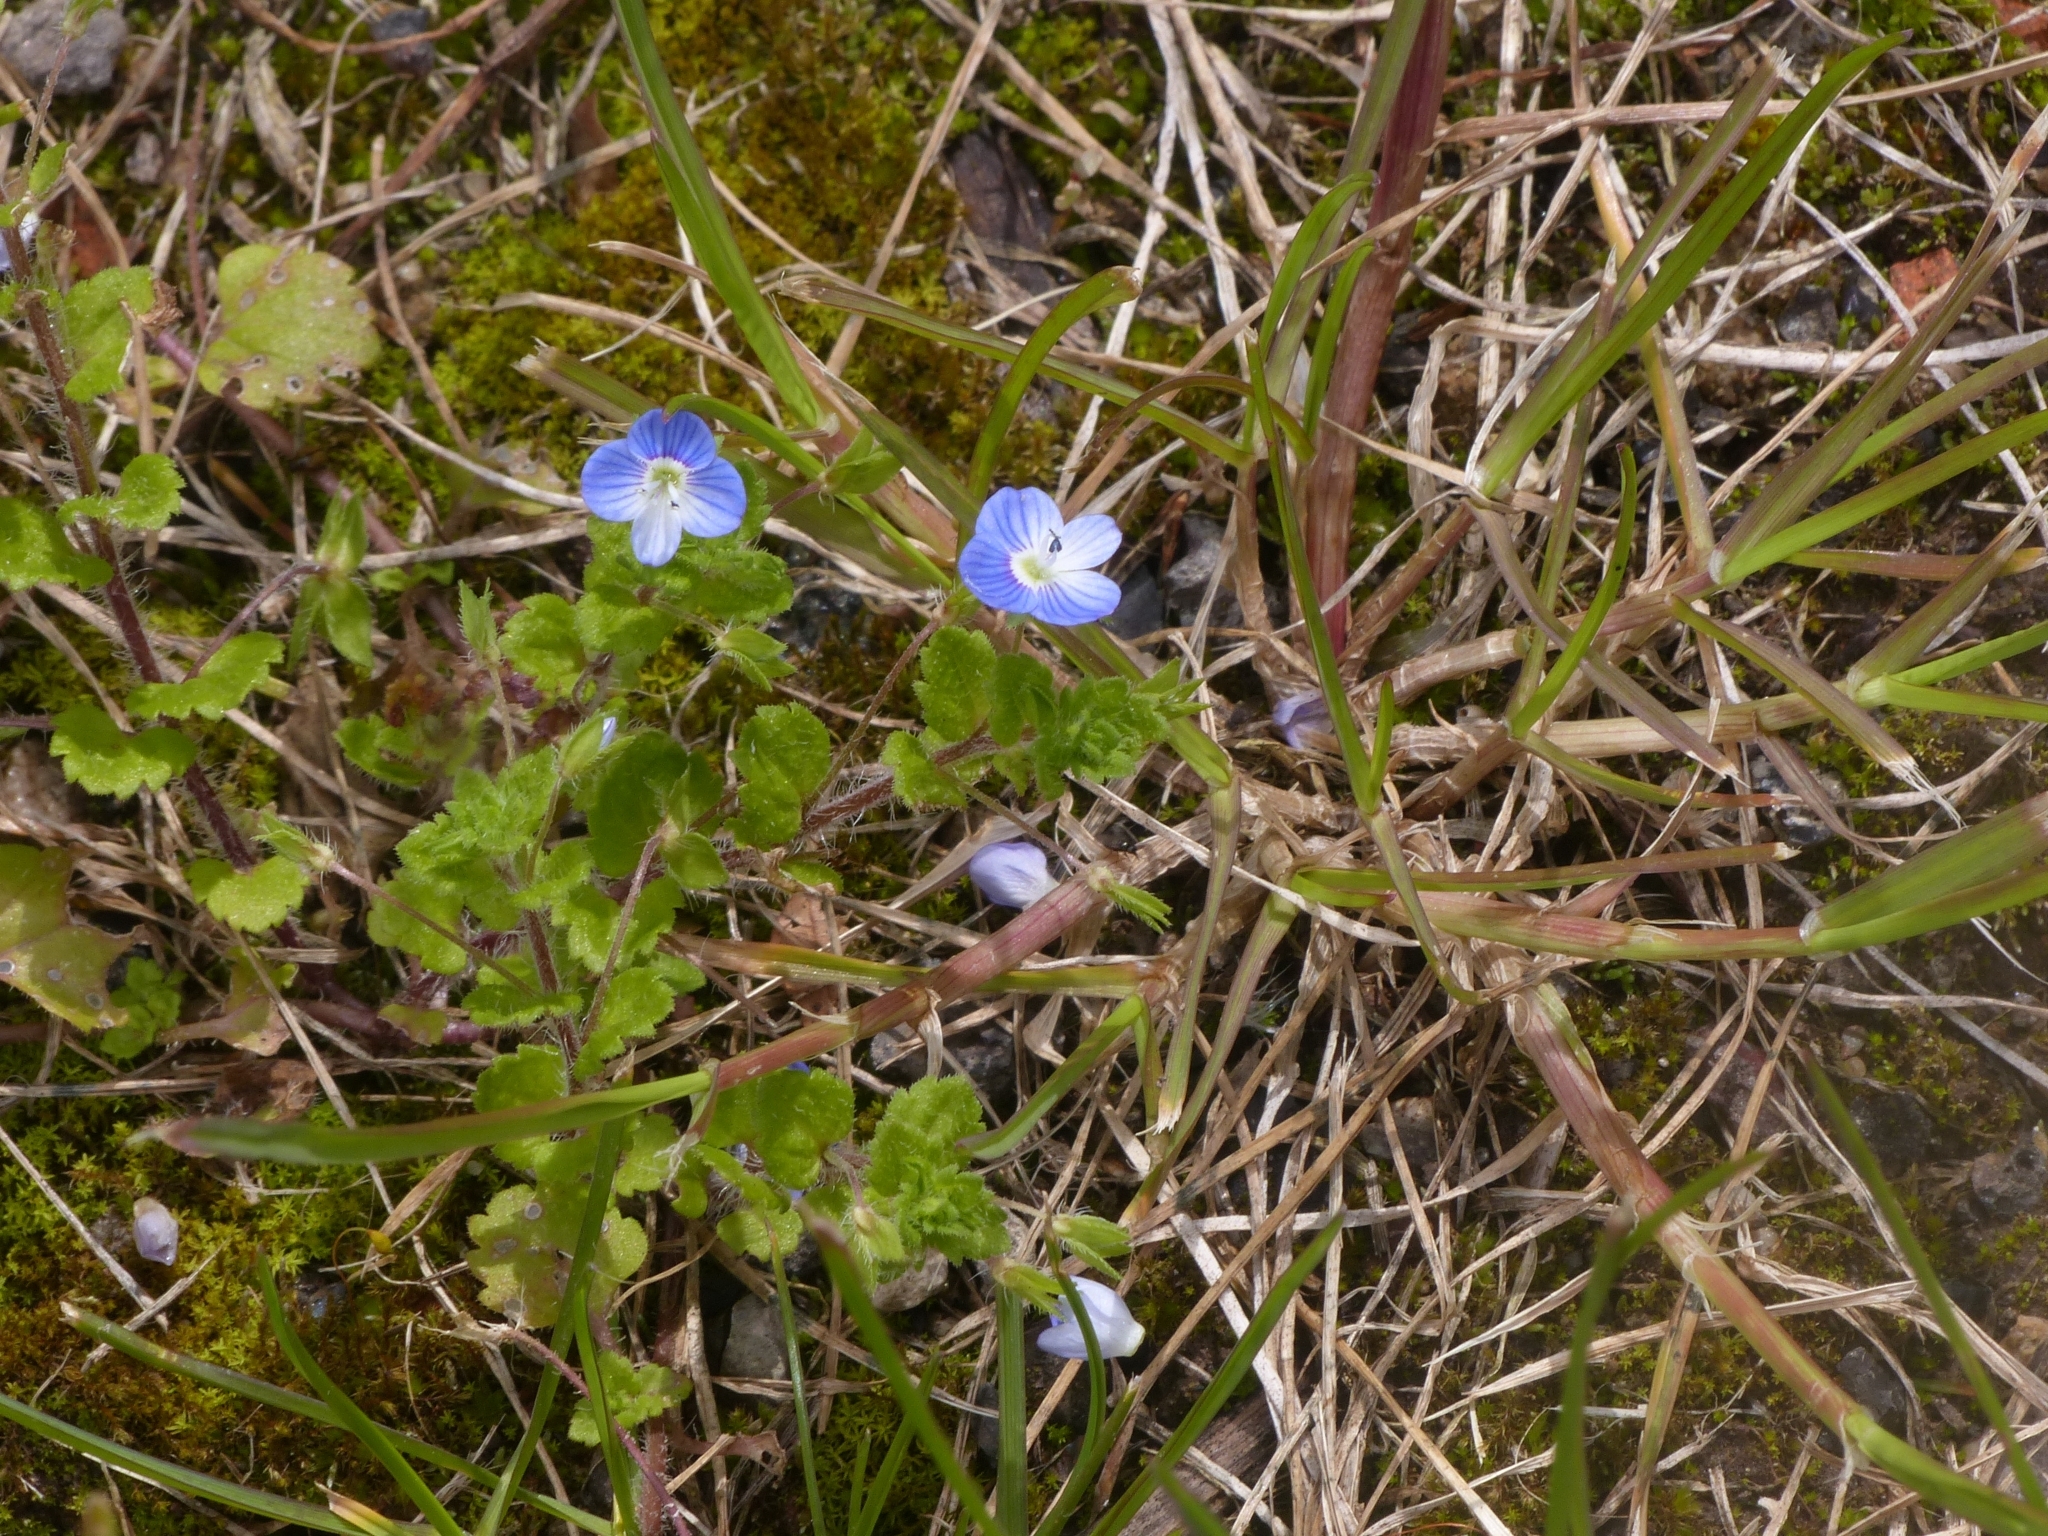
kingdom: Plantae
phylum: Tracheophyta
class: Magnoliopsida
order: Lamiales
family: Plantaginaceae
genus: Veronica
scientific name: Veronica persica
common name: Common field-speedwell
